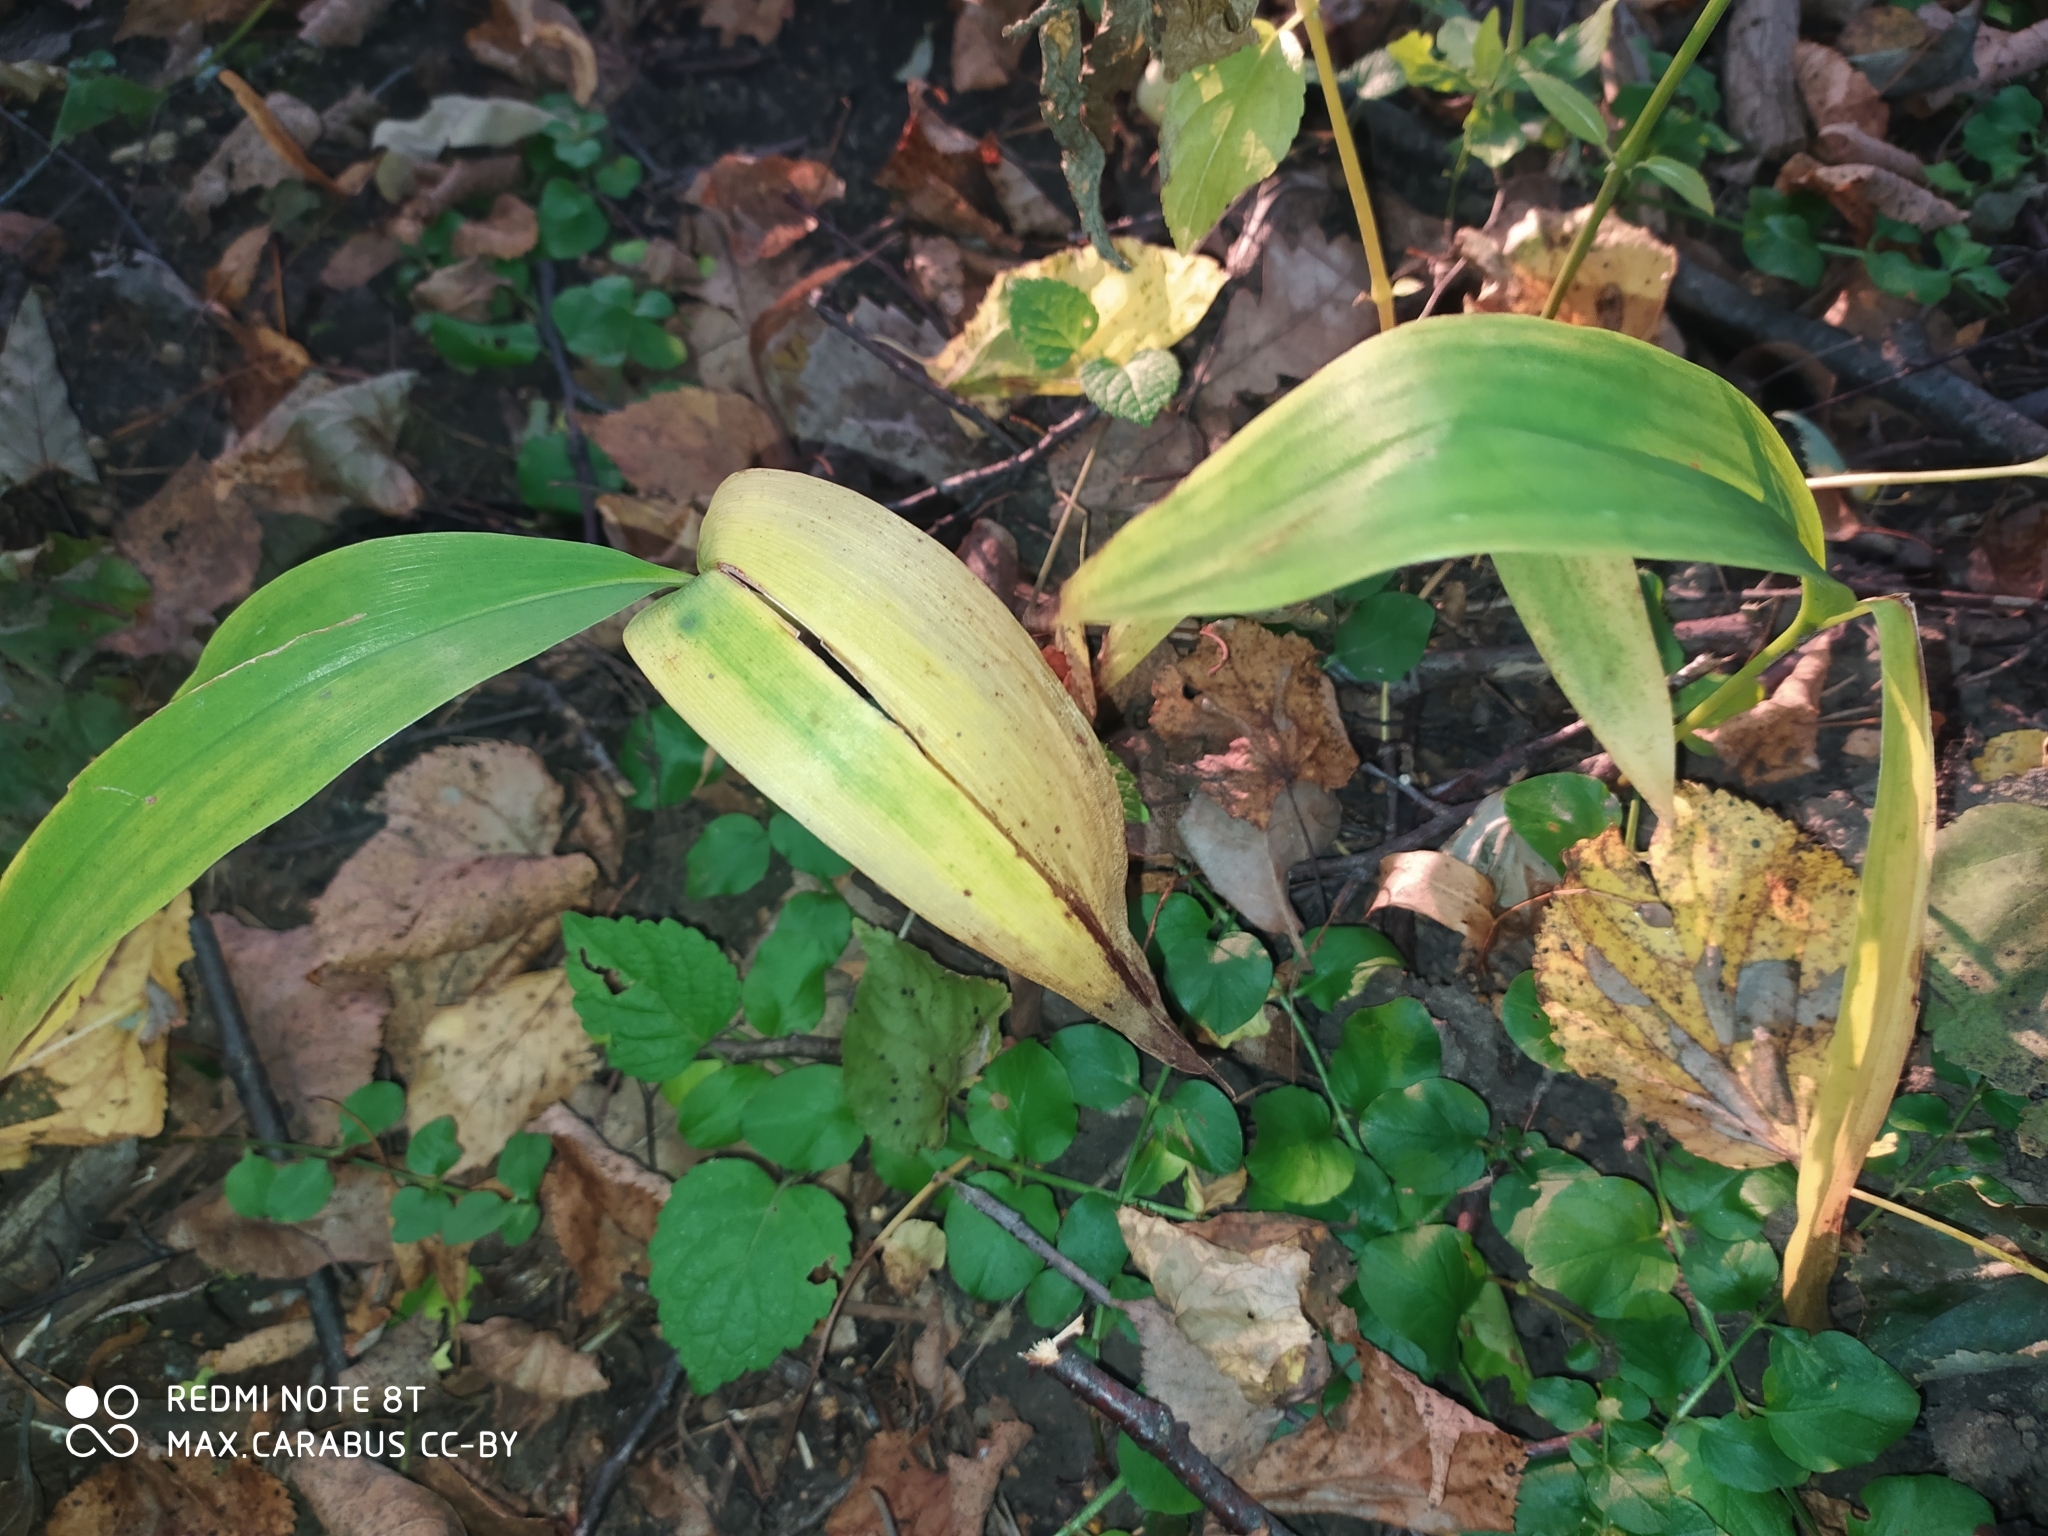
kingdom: Plantae
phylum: Tracheophyta
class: Liliopsida
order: Asparagales
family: Asparagaceae
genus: Convallaria
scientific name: Convallaria majalis
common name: Lily-of-the-valley
